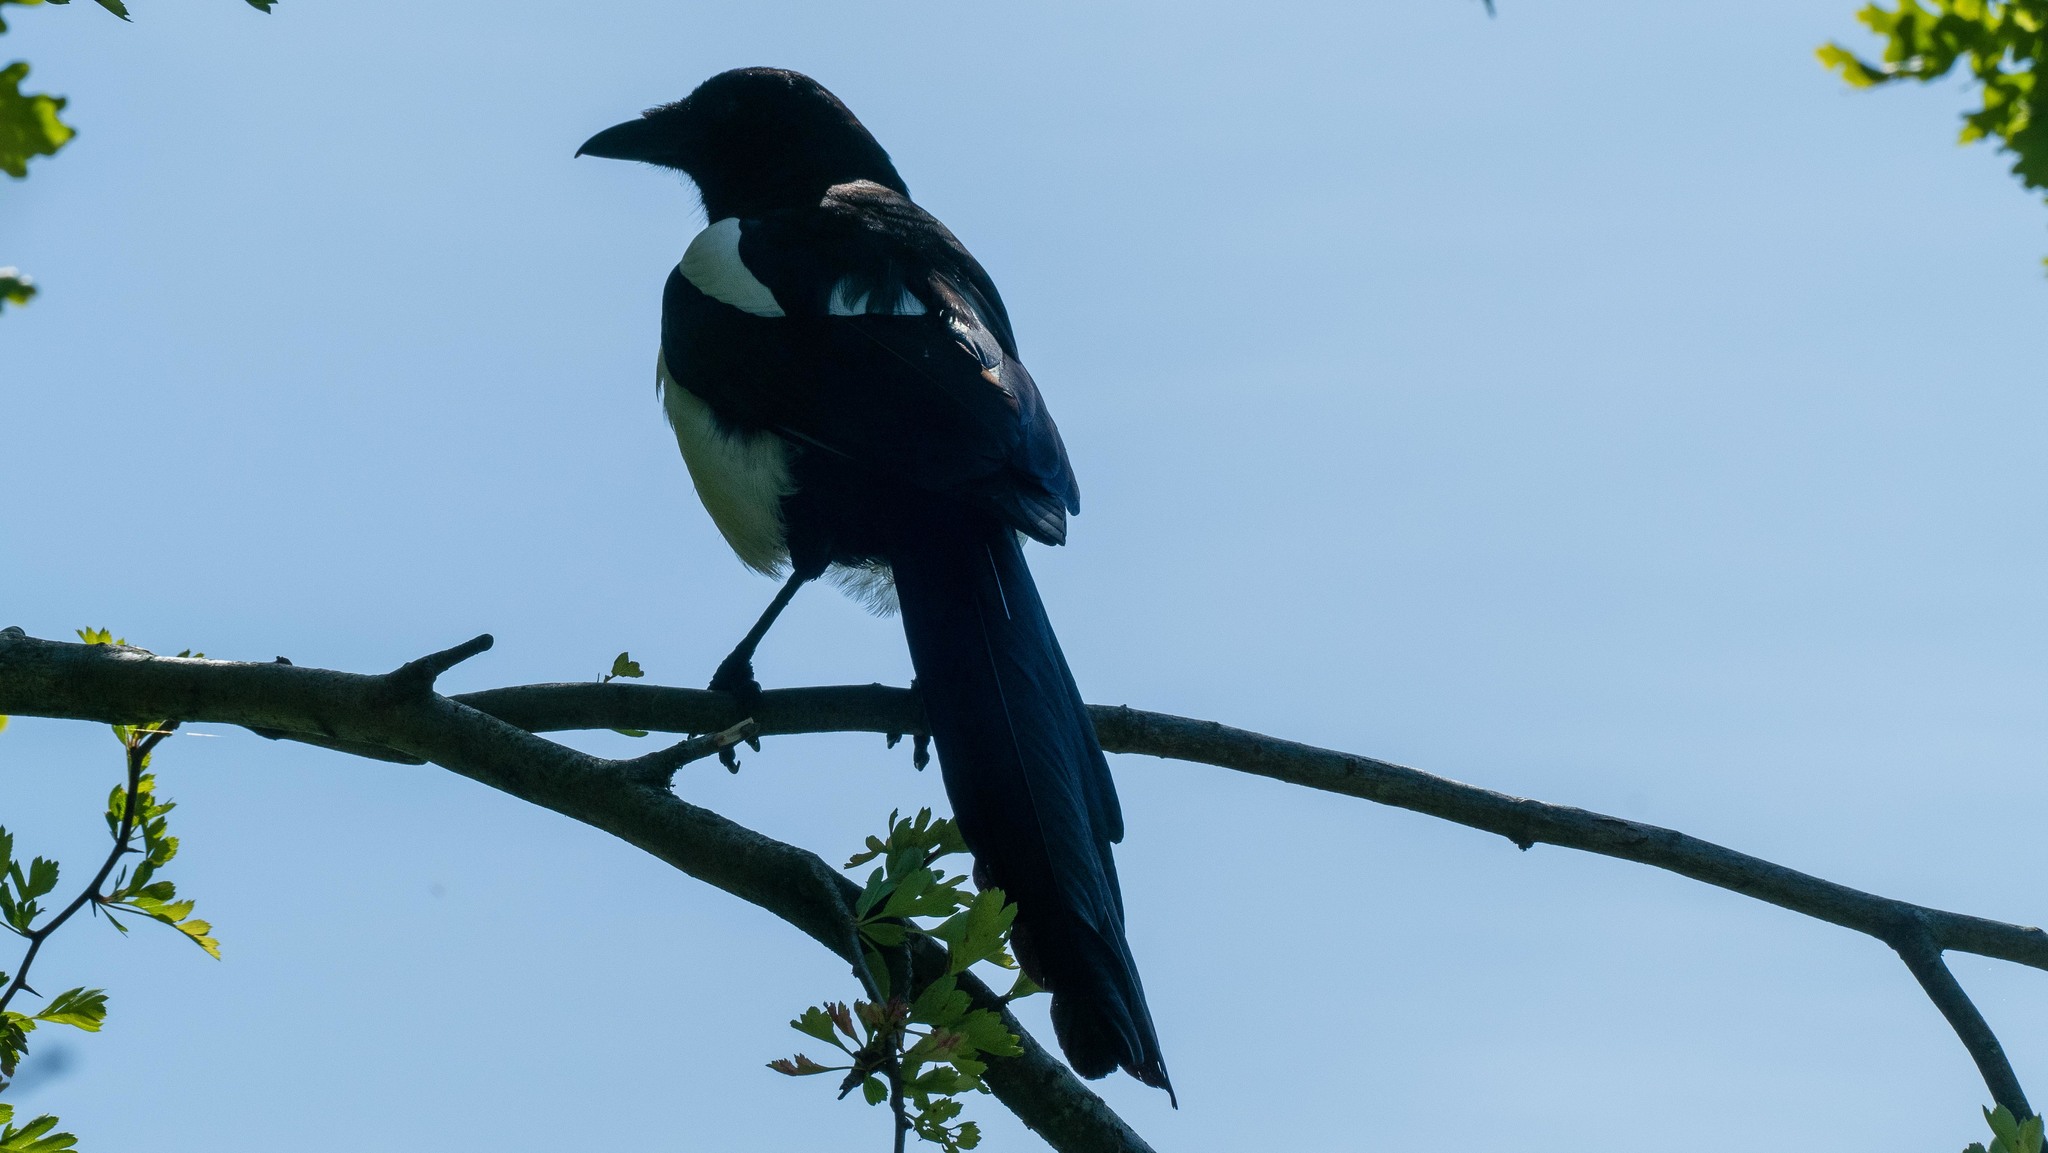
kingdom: Animalia
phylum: Chordata
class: Aves
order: Passeriformes
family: Corvidae
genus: Pica
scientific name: Pica pica
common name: Eurasian magpie
